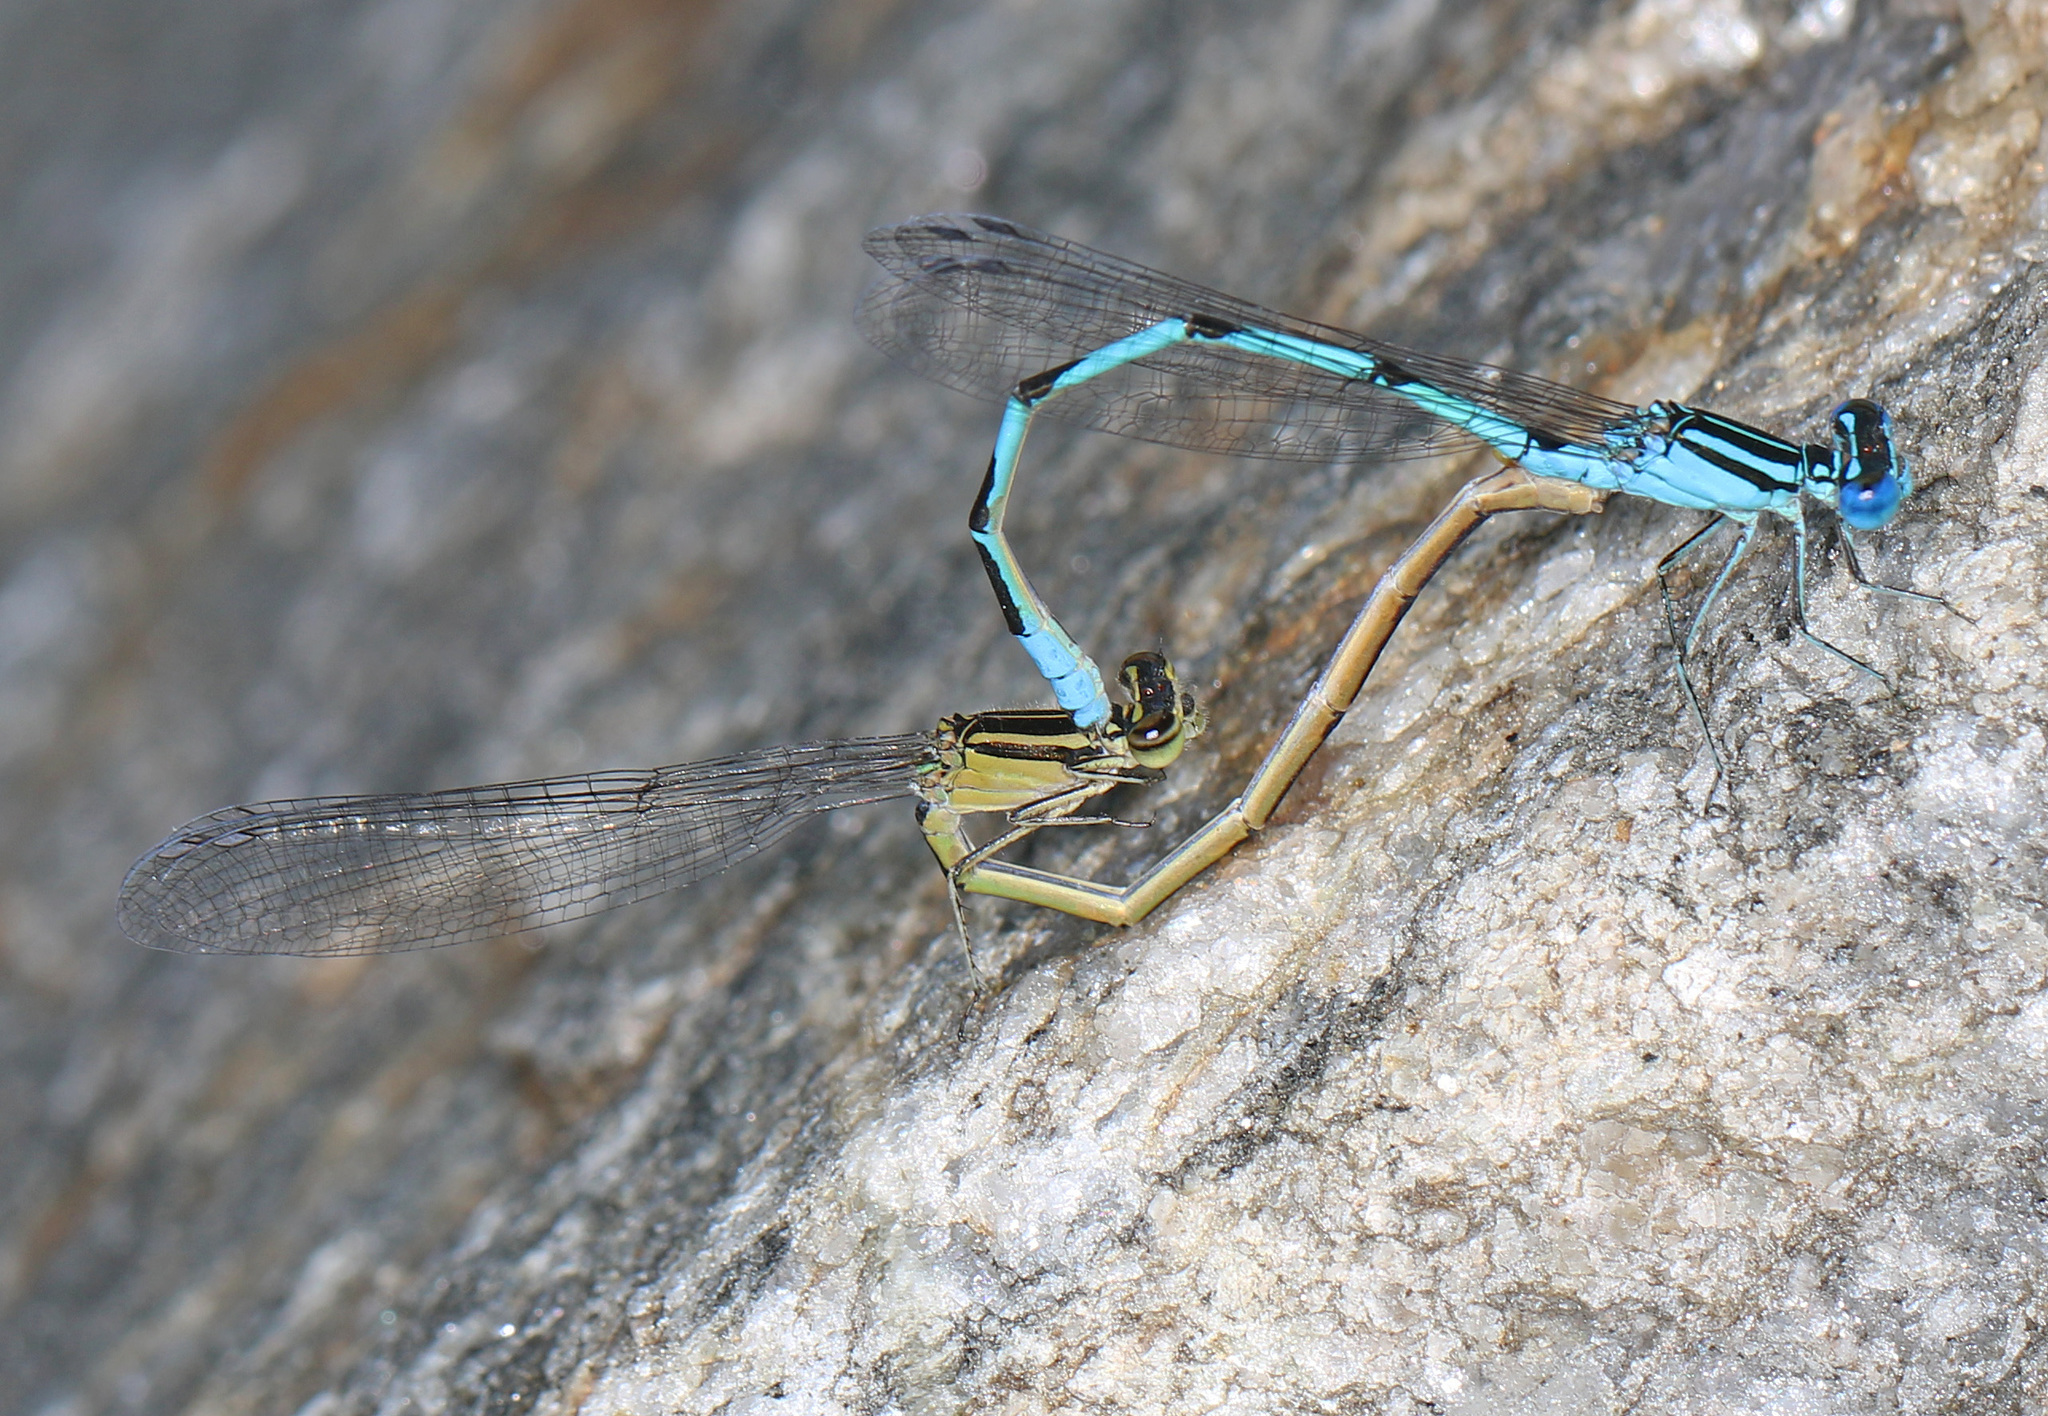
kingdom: Animalia
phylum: Arthropoda
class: Insecta
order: Odonata
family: Coenagrionidae
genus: Enallagma
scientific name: Enallagma durum
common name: Big bluet
